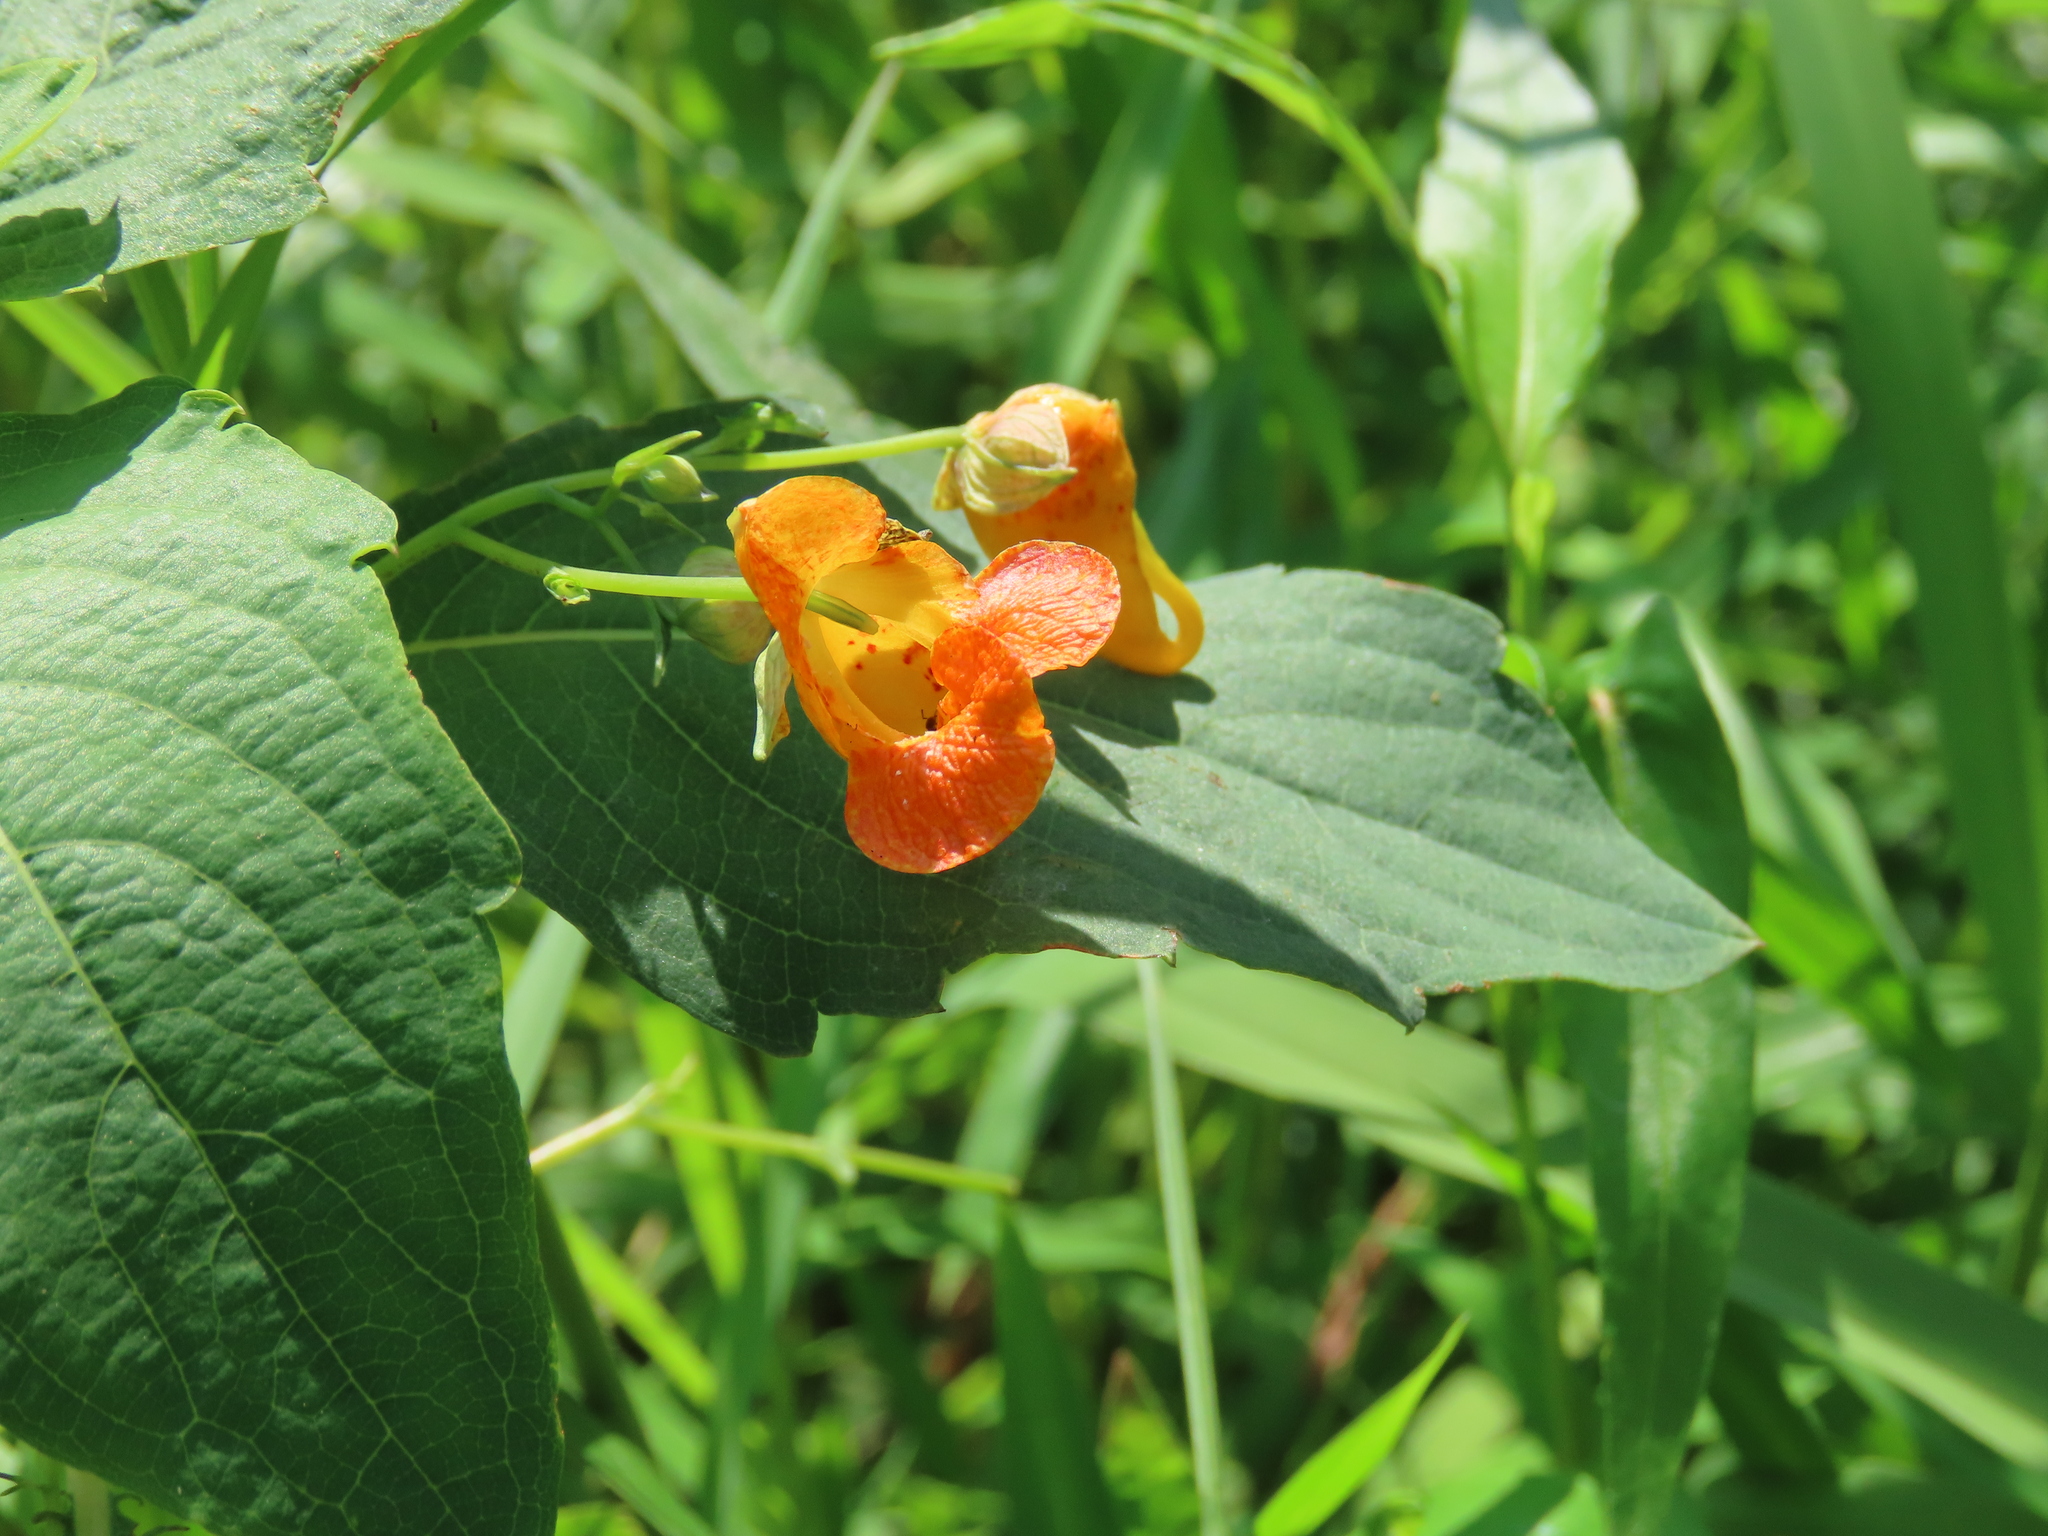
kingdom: Plantae
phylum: Tracheophyta
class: Magnoliopsida
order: Ericales
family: Balsaminaceae
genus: Impatiens
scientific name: Impatiens capensis
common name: Orange balsam
